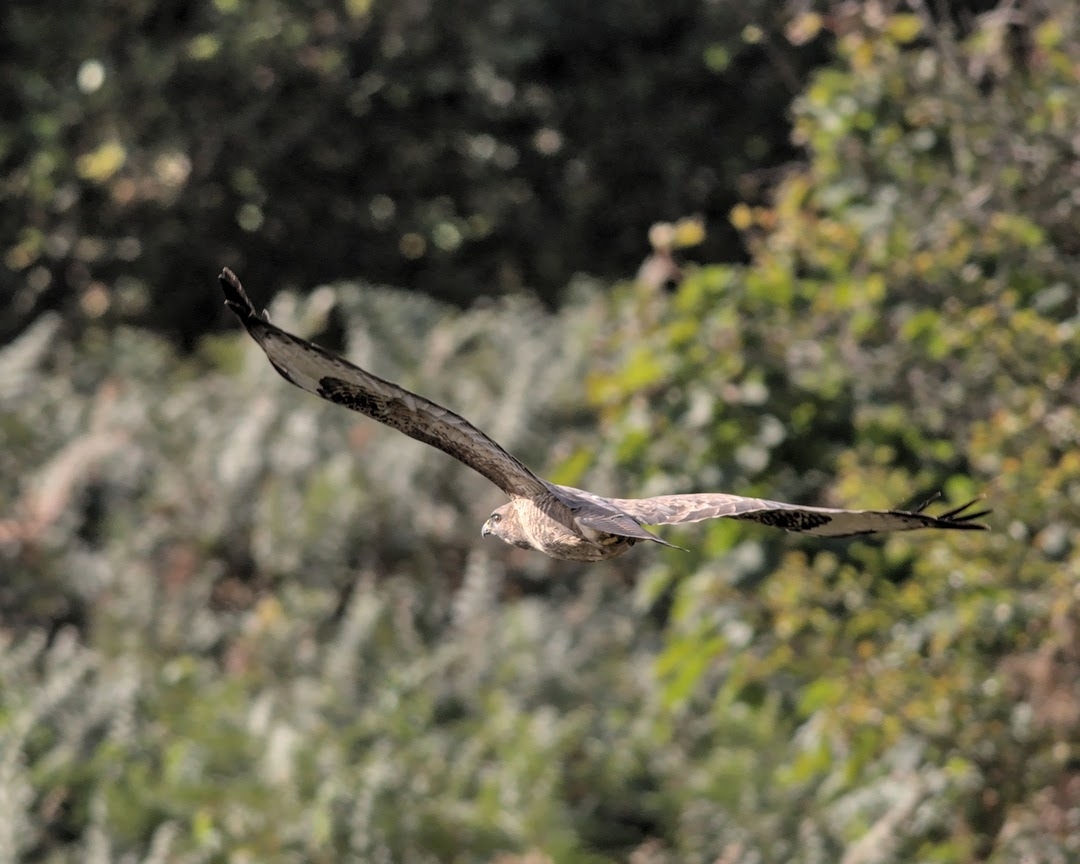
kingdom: Animalia
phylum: Chordata
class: Aves
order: Accipitriformes
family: Accipitridae
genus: Buteo
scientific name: Buteo buteo
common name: Common buzzard
